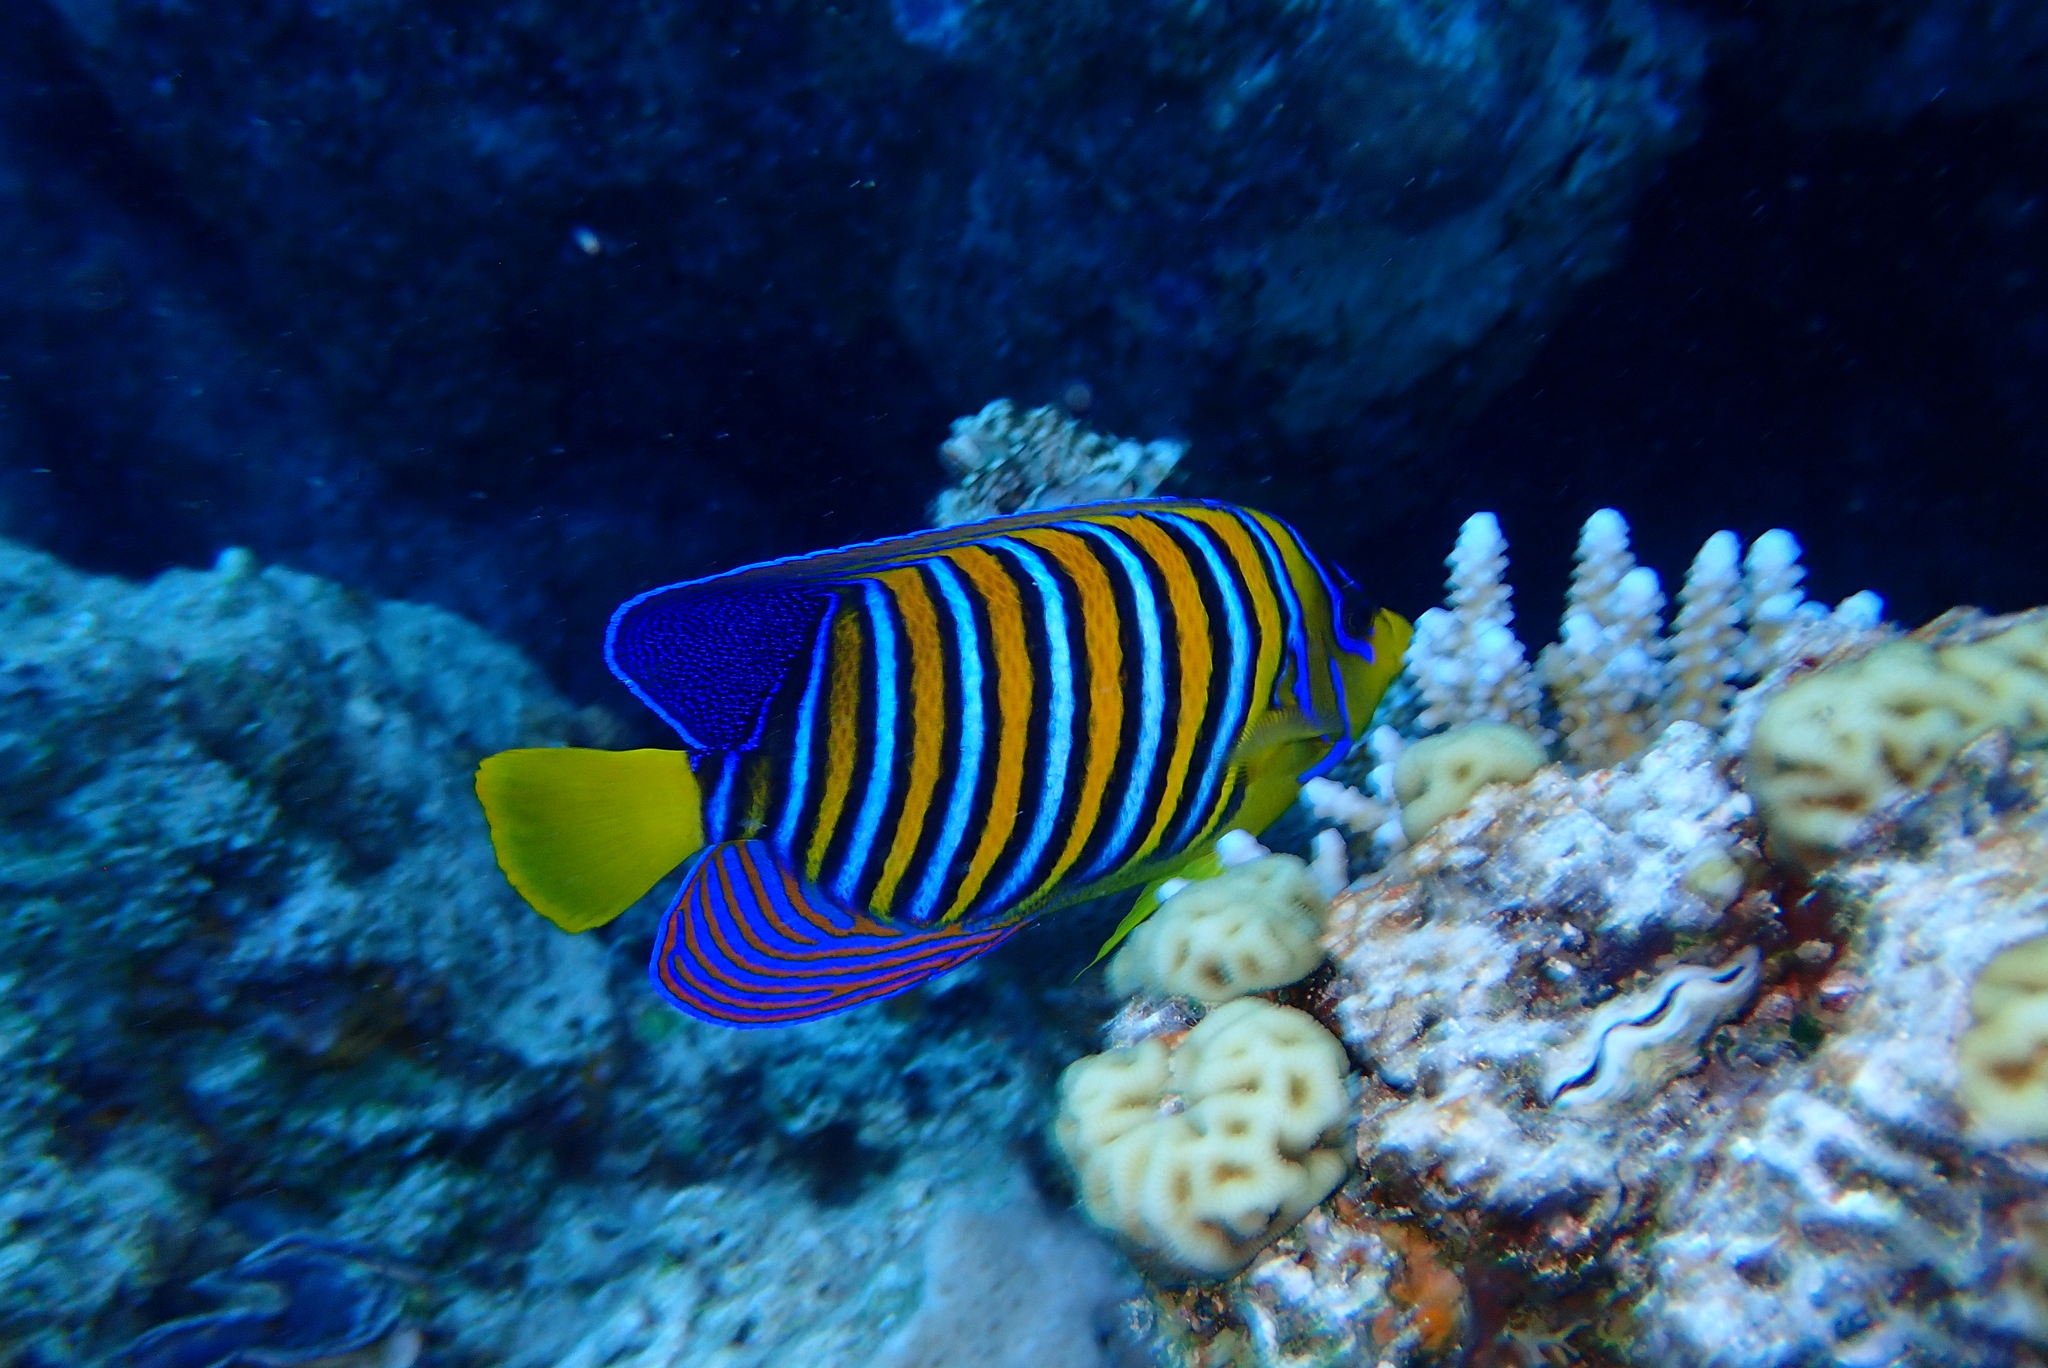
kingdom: Animalia
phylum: Chordata
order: Perciformes
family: Pomacanthidae
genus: Pygoplites
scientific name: Pygoplites diacanthus
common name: Regal angelfish
